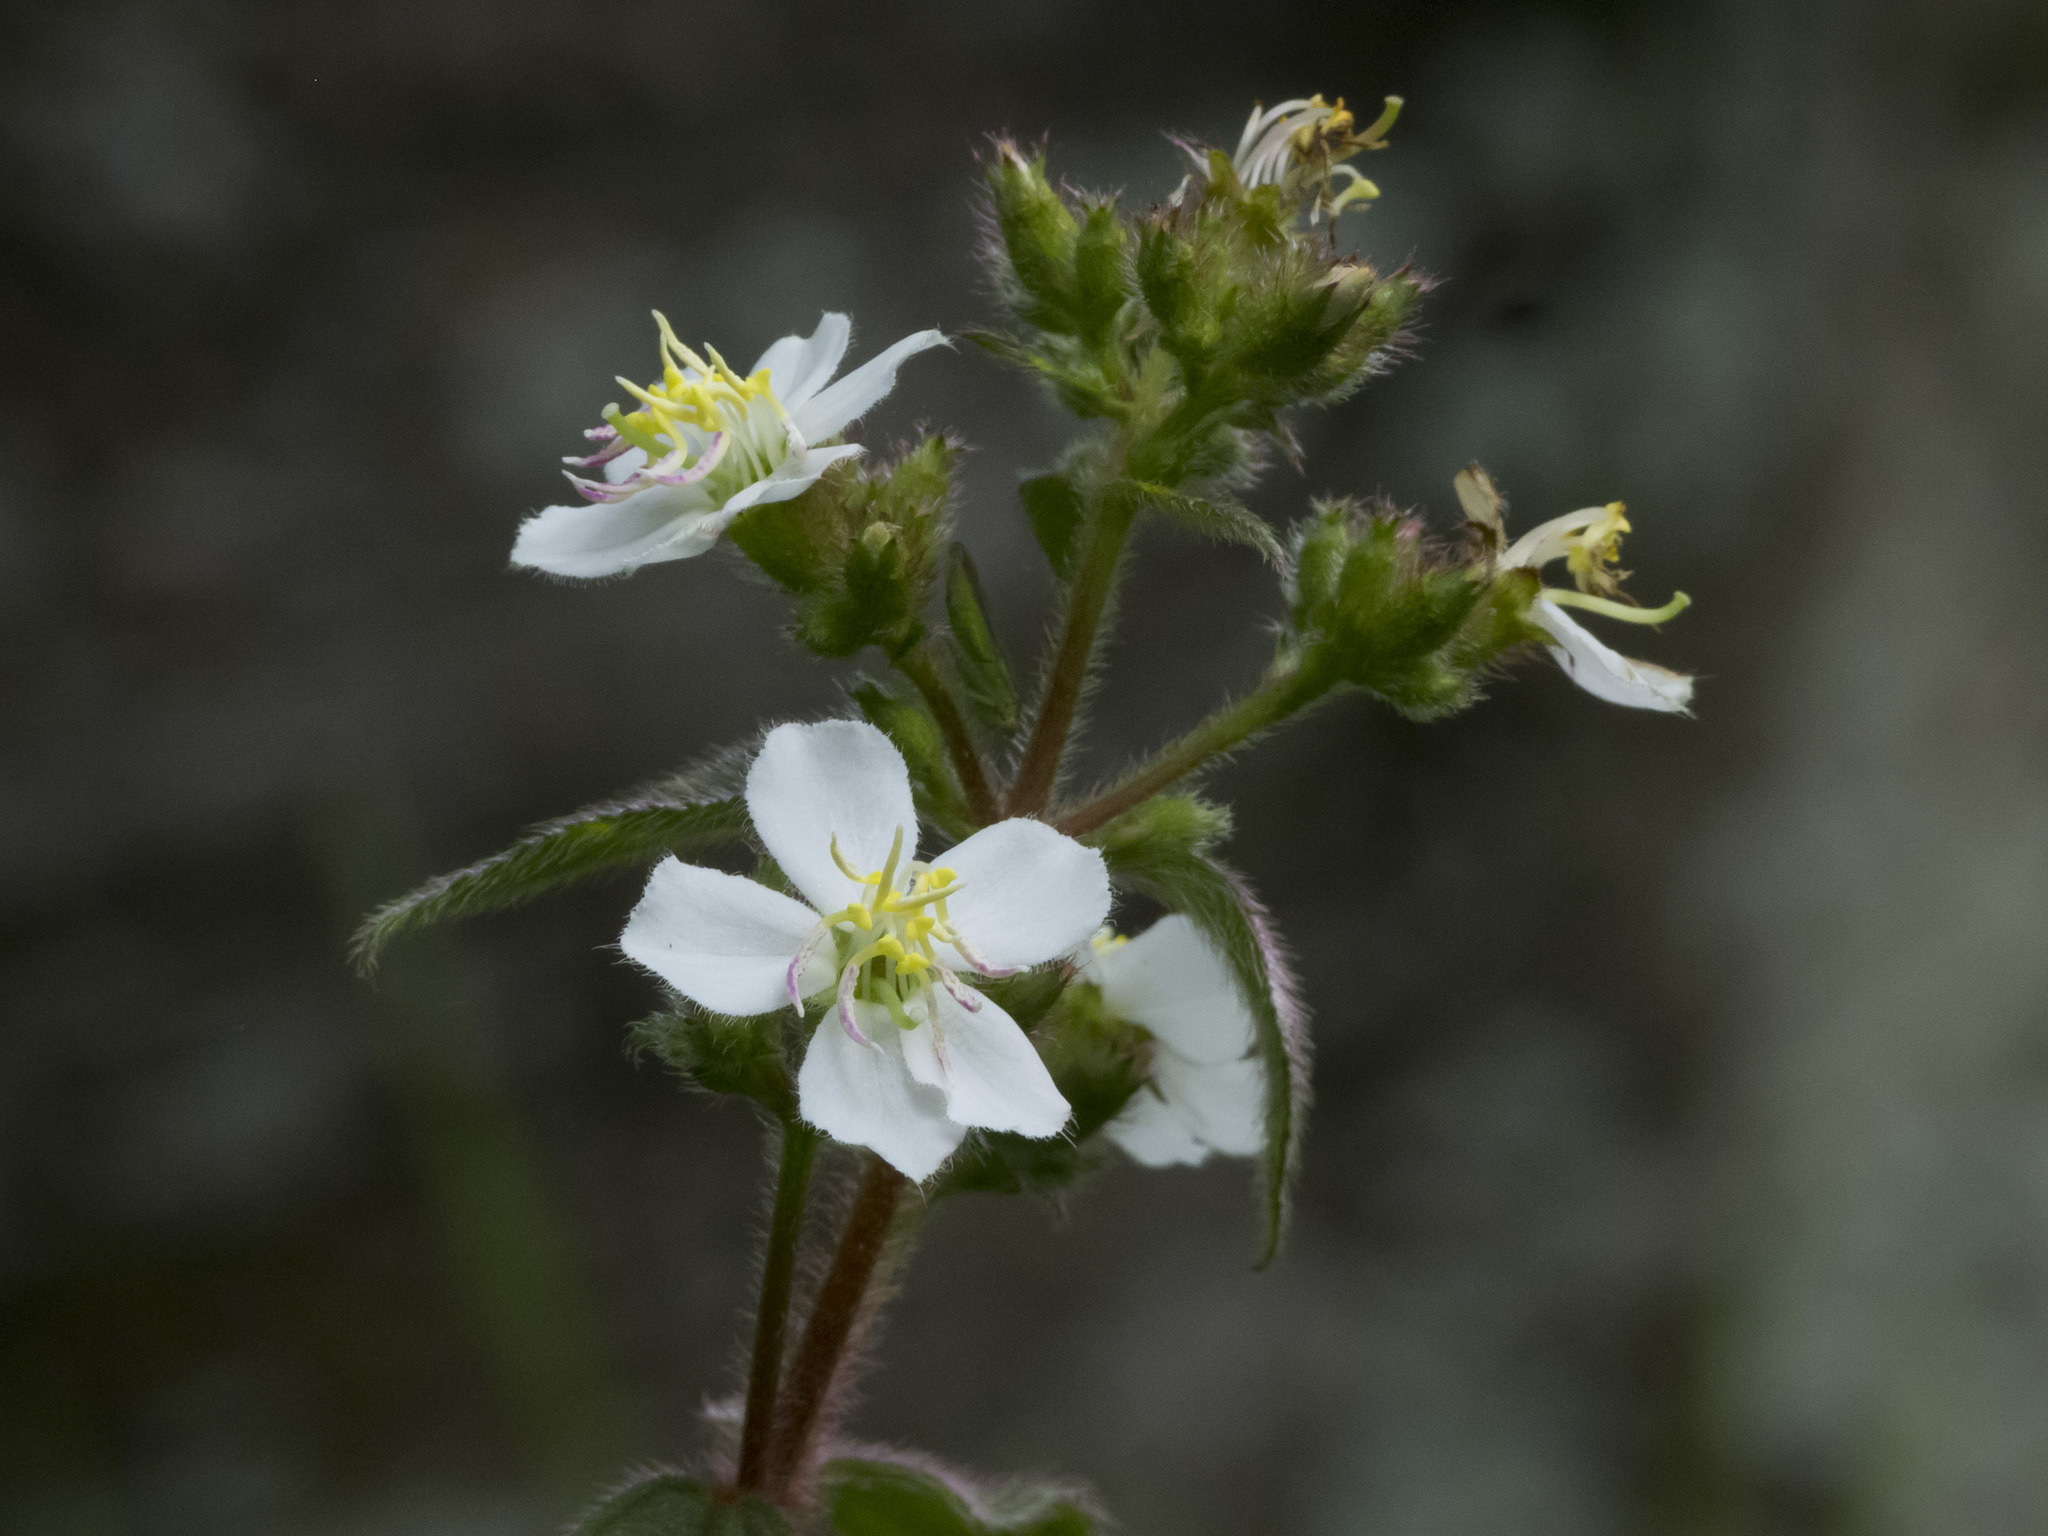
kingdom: Plantae
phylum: Tracheophyta
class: Magnoliopsida
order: Myrtales
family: Melastomataceae
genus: Chaetogastra
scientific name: Chaetogastra ciliaris
